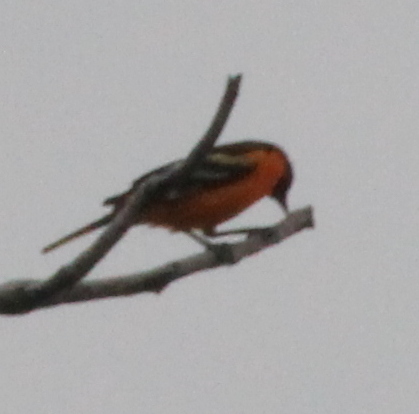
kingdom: Animalia
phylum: Chordata
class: Aves
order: Passeriformes
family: Icteridae
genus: Icterus
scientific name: Icterus galbula
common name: Baltimore oriole
